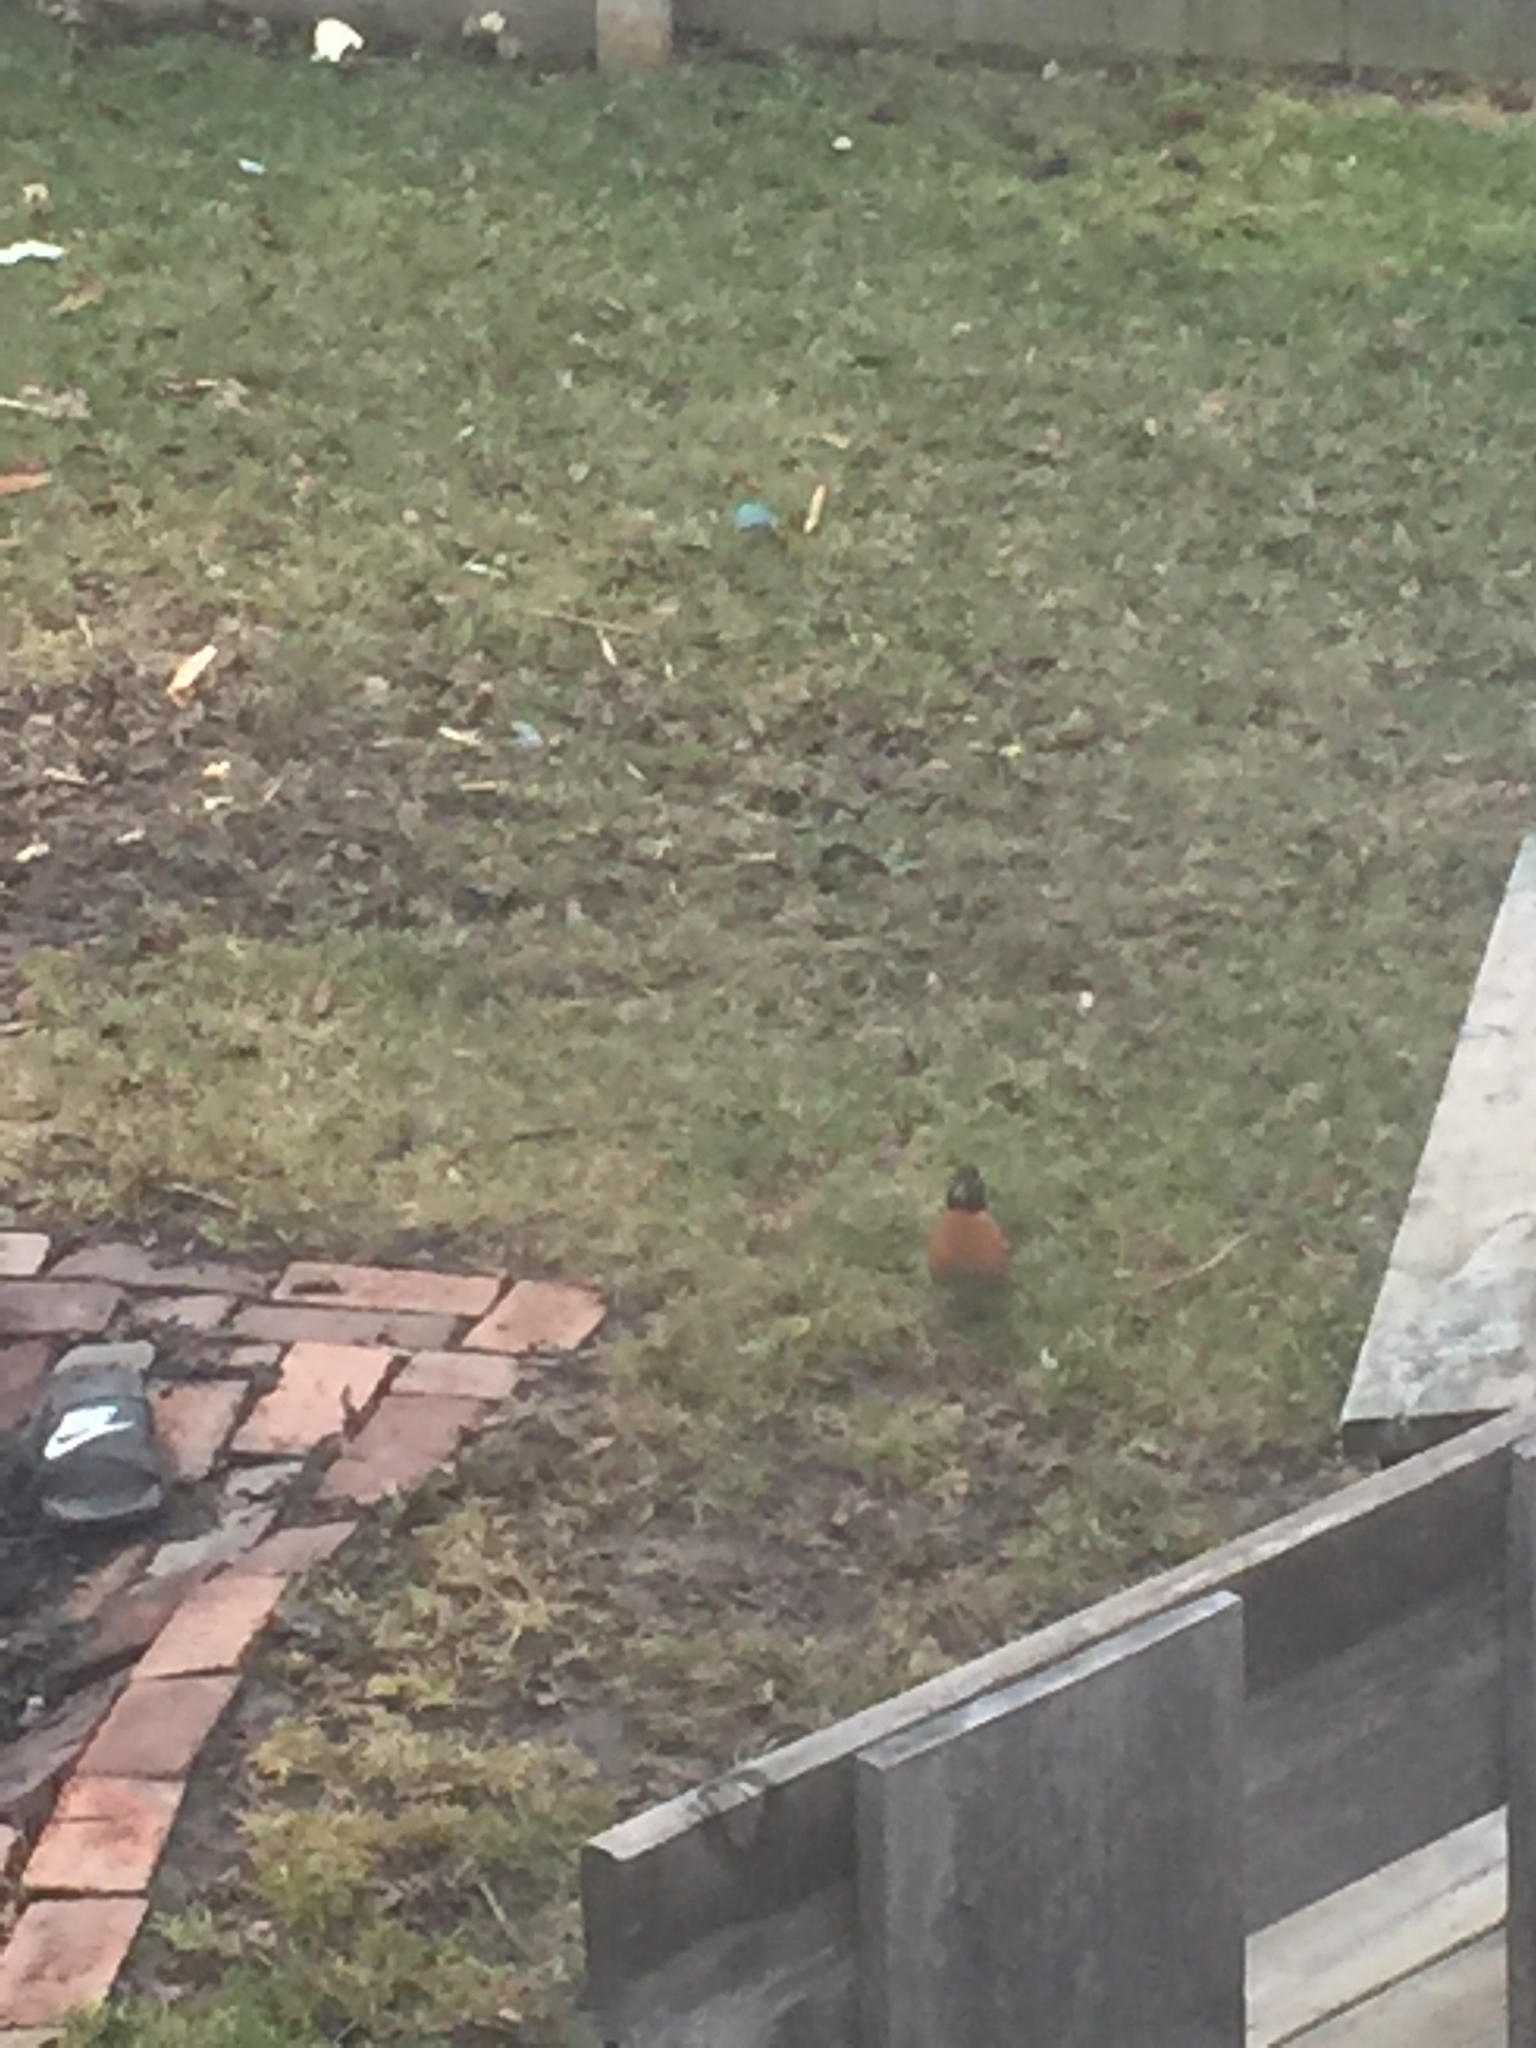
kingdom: Animalia
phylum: Chordata
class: Aves
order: Passeriformes
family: Turdidae
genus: Turdus
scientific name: Turdus migratorius
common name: American robin
